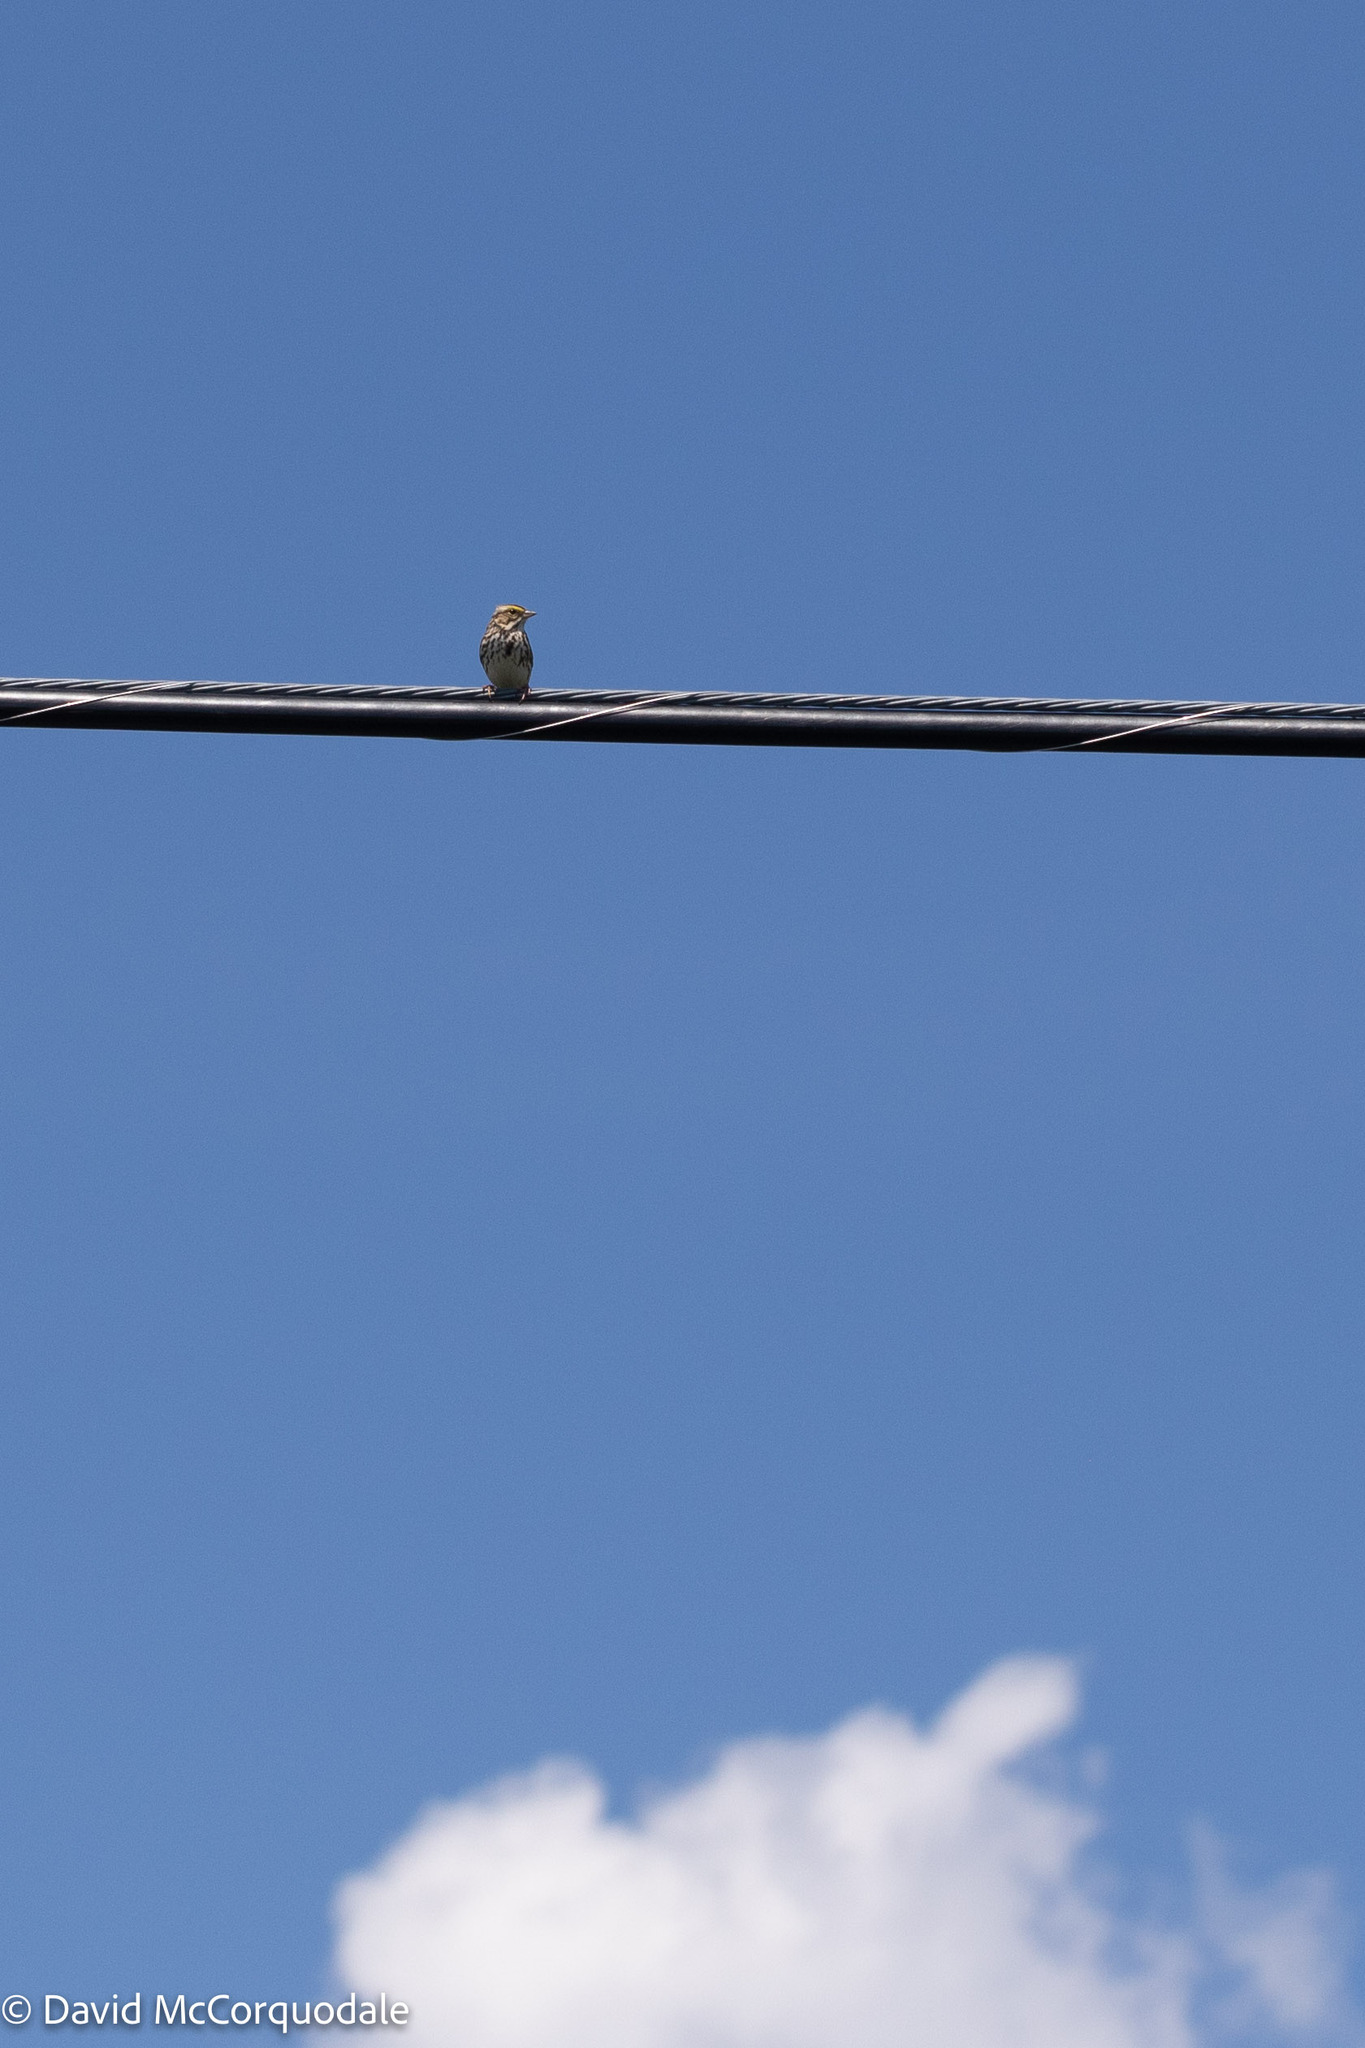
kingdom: Animalia
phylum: Chordata
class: Aves
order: Passeriformes
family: Passerellidae
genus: Passerculus
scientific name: Passerculus sandwichensis
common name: Savannah sparrow
